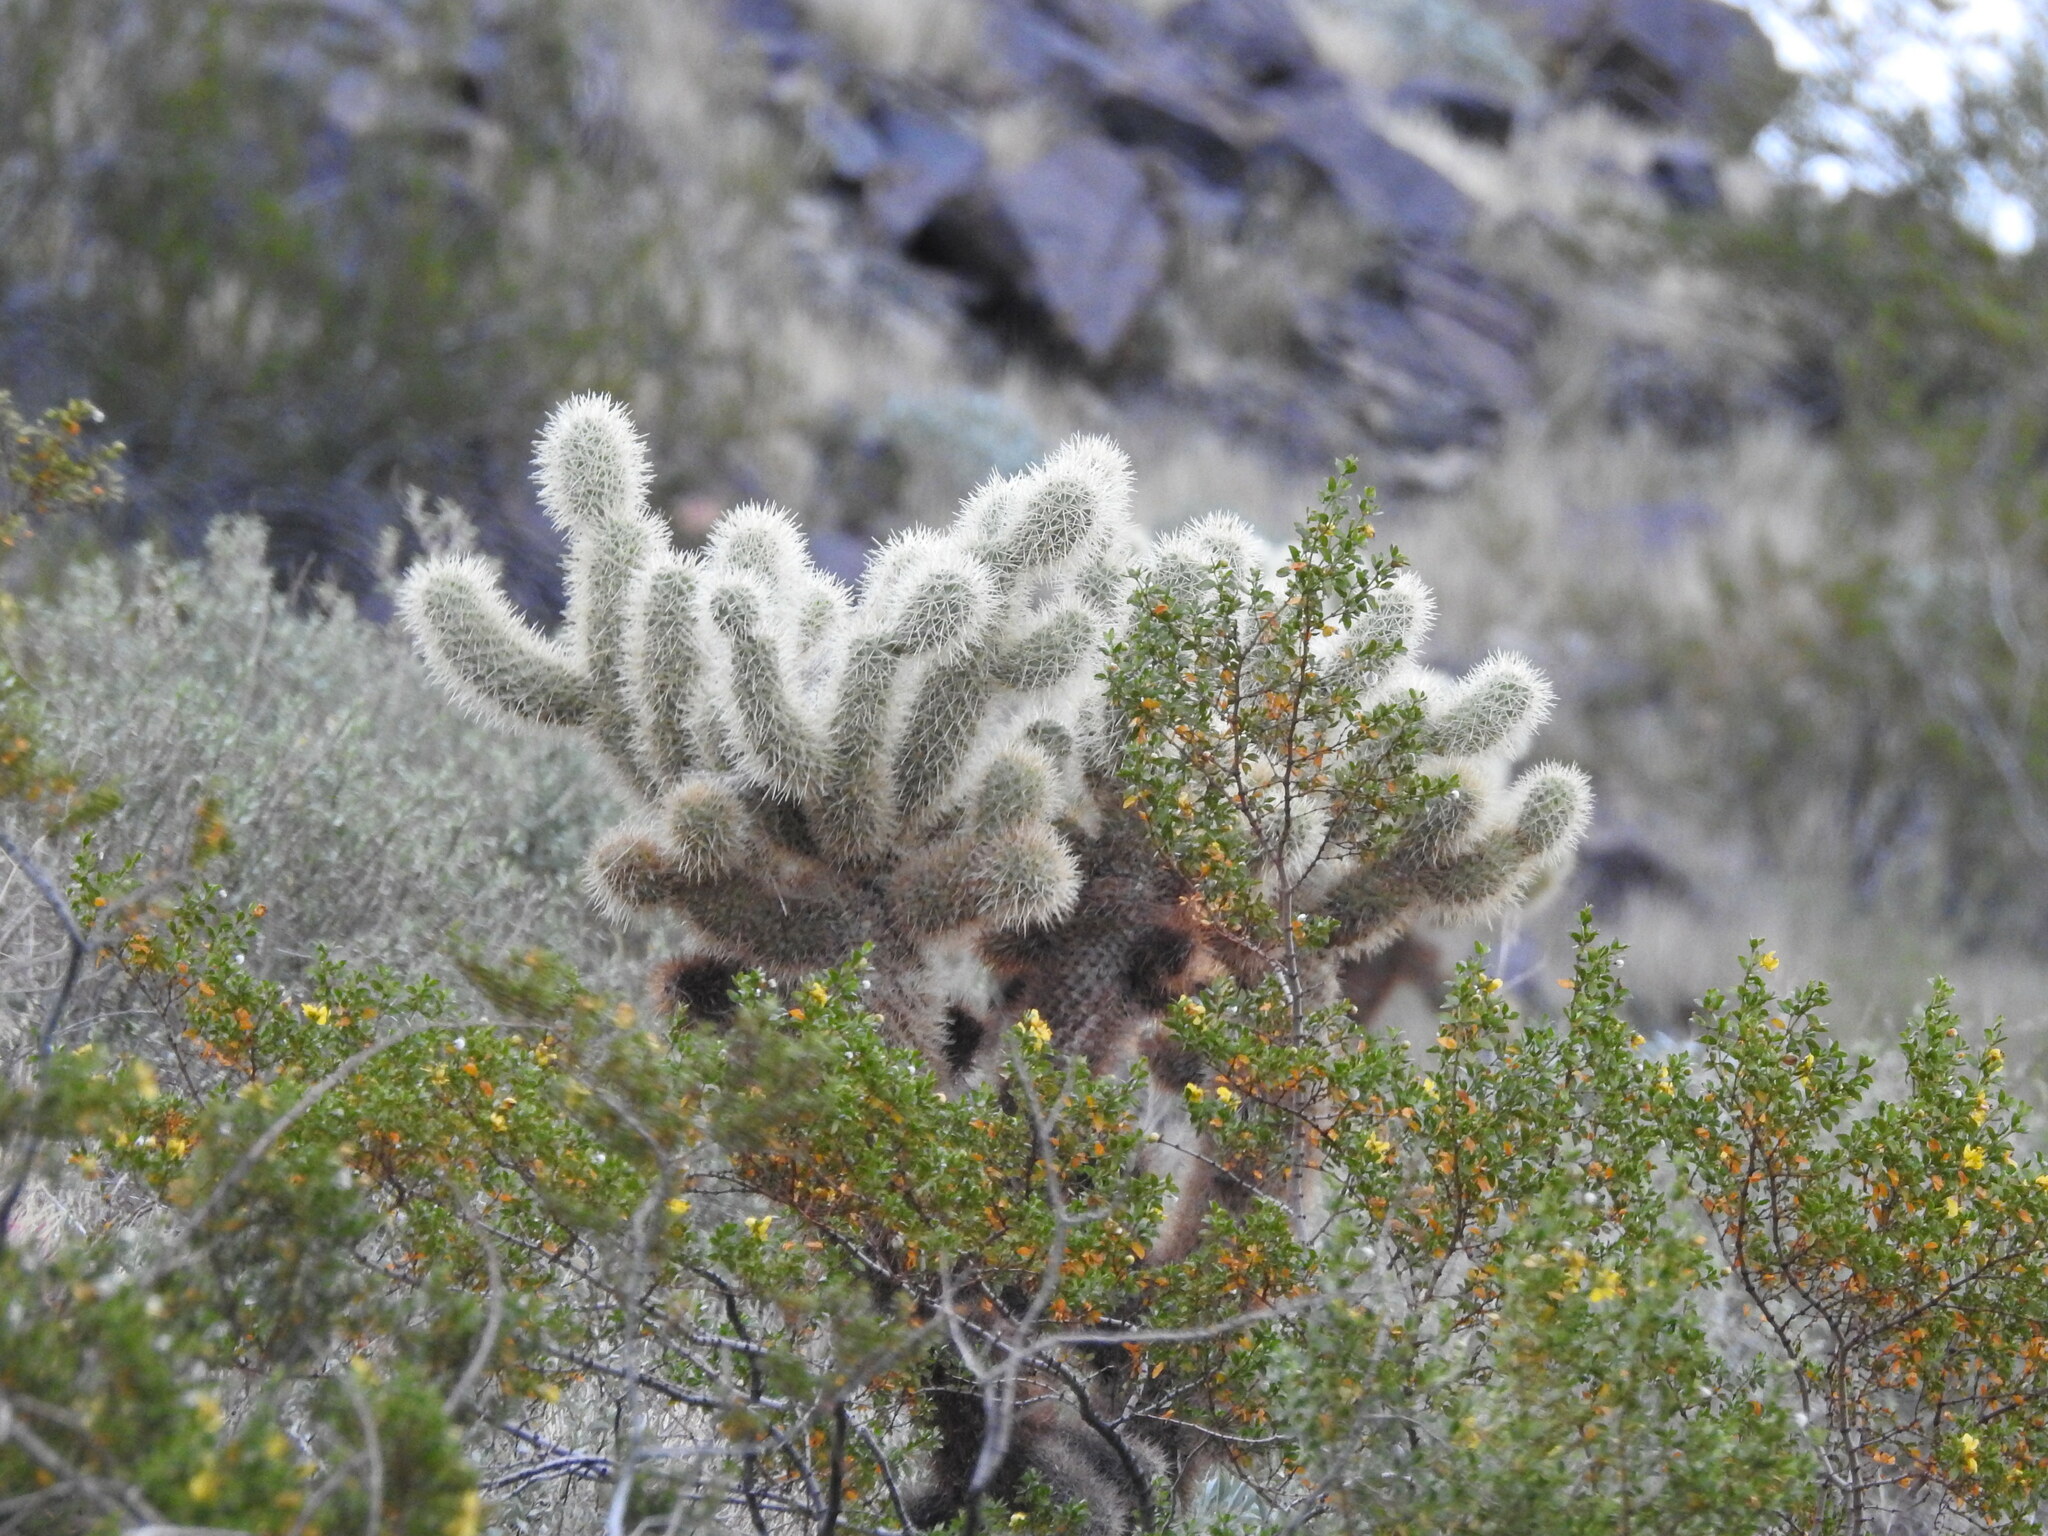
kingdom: Plantae
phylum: Tracheophyta
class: Magnoliopsida
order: Caryophyllales
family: Cactaceae
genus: Cylindropuntia
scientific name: Cylindropuntia fosbergii
